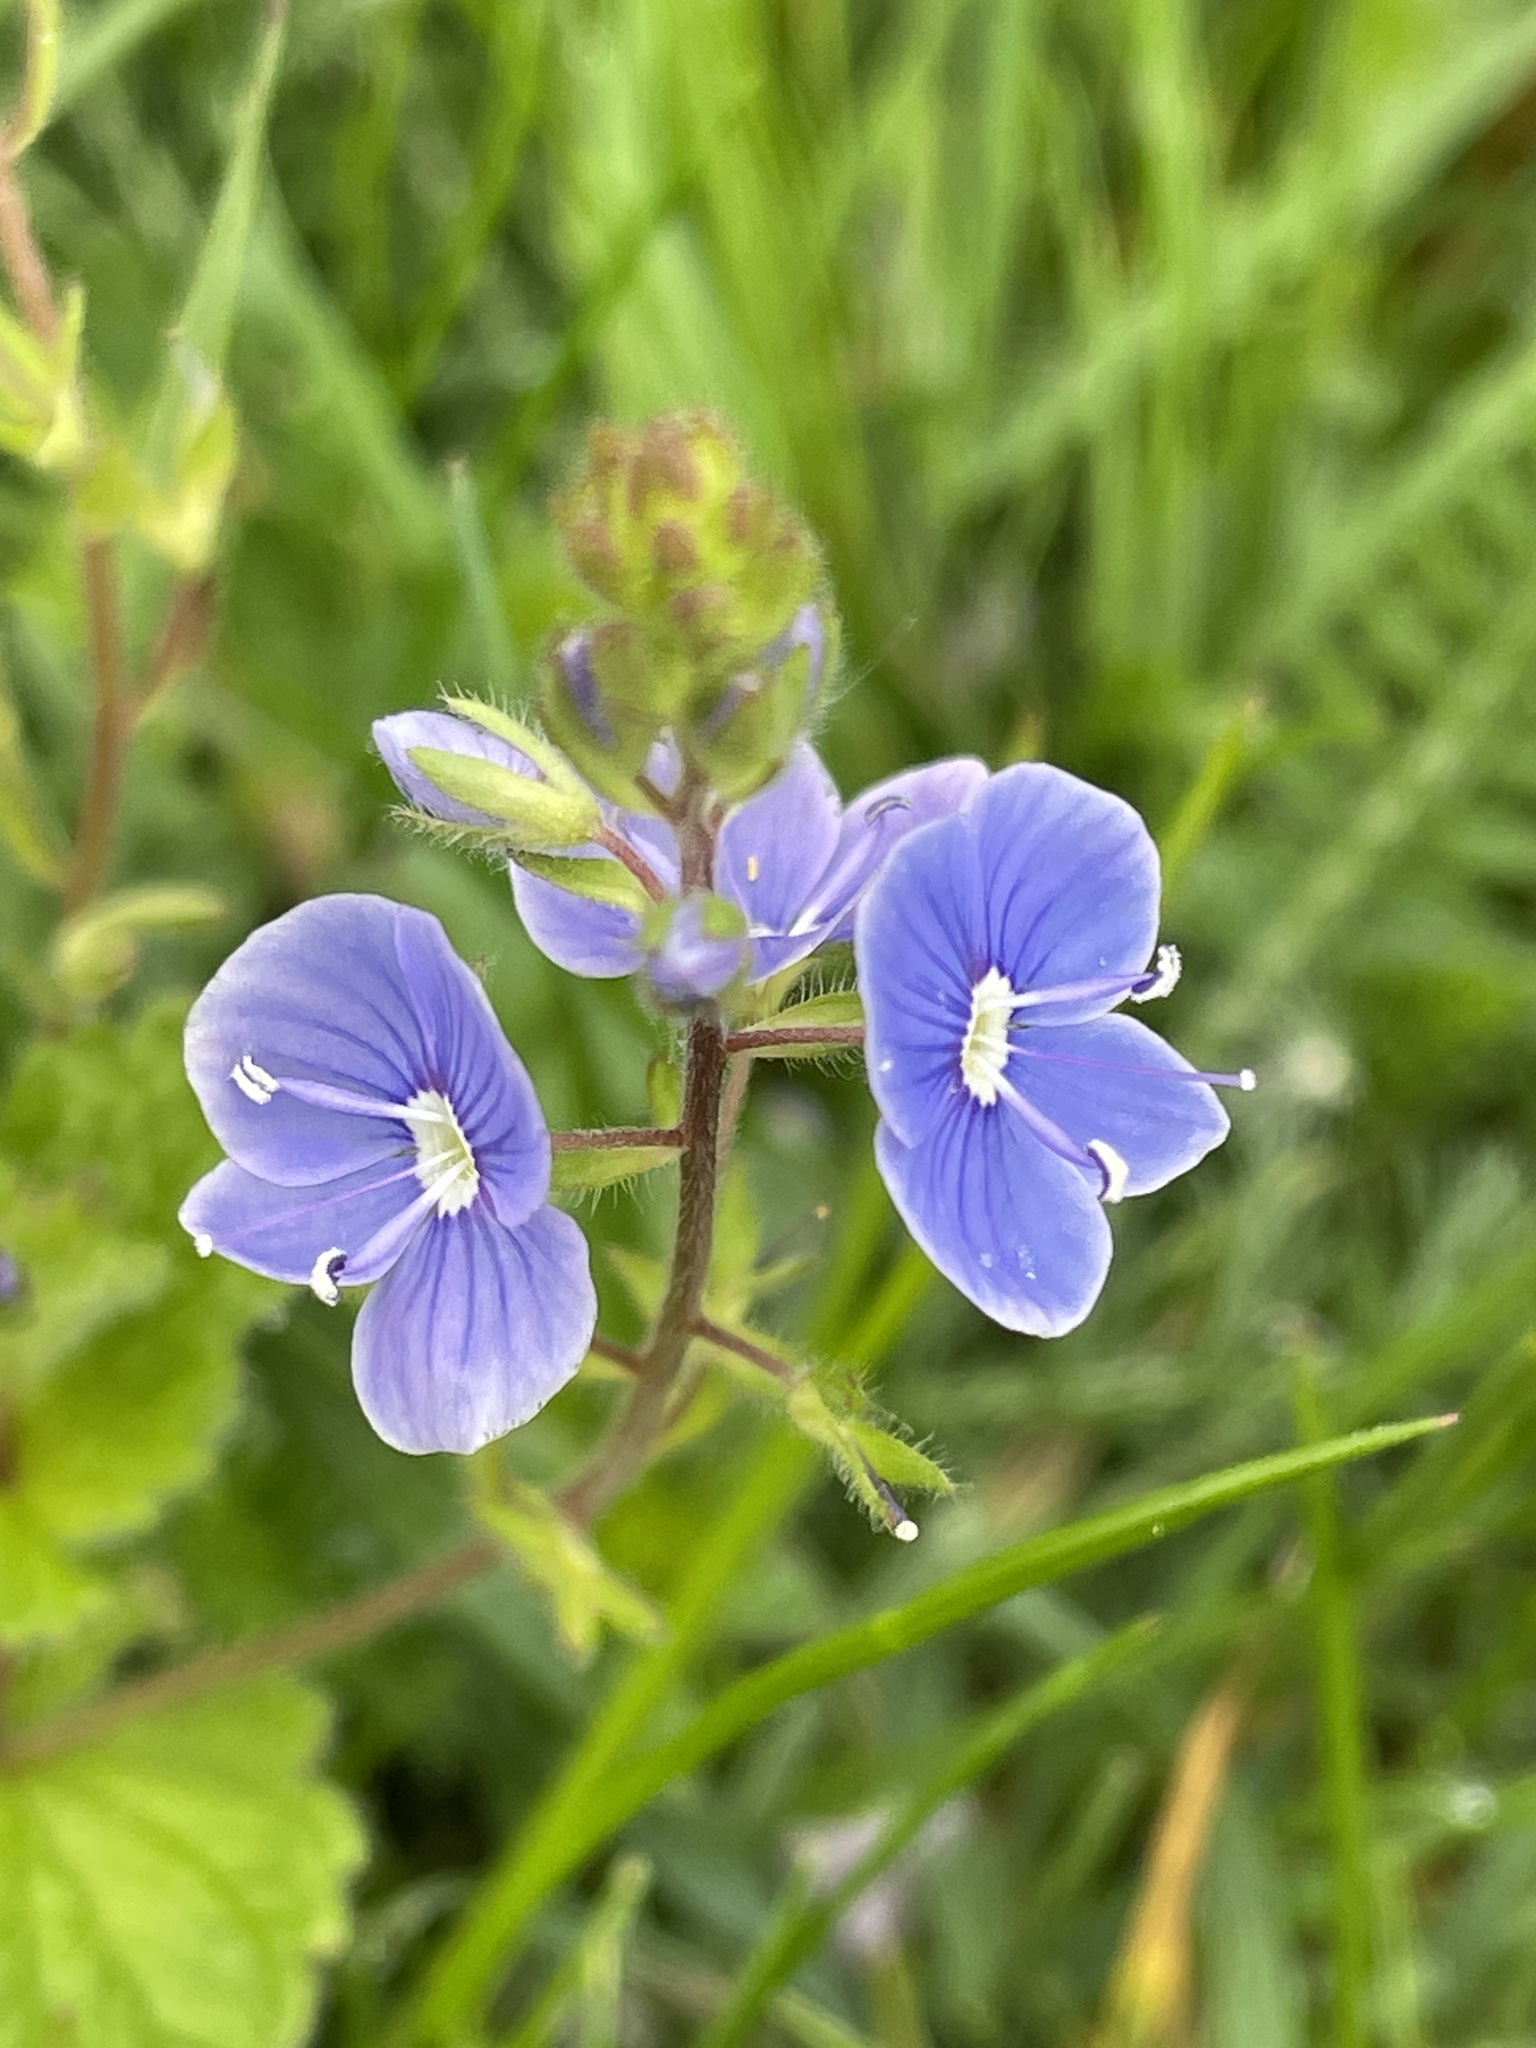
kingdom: Plantae
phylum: Tracheophyta
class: Magnoliopsida
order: Lamiales
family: Plantaginaceae
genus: Veronica
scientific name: Veronica chamaedrys
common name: Germander speedwell
